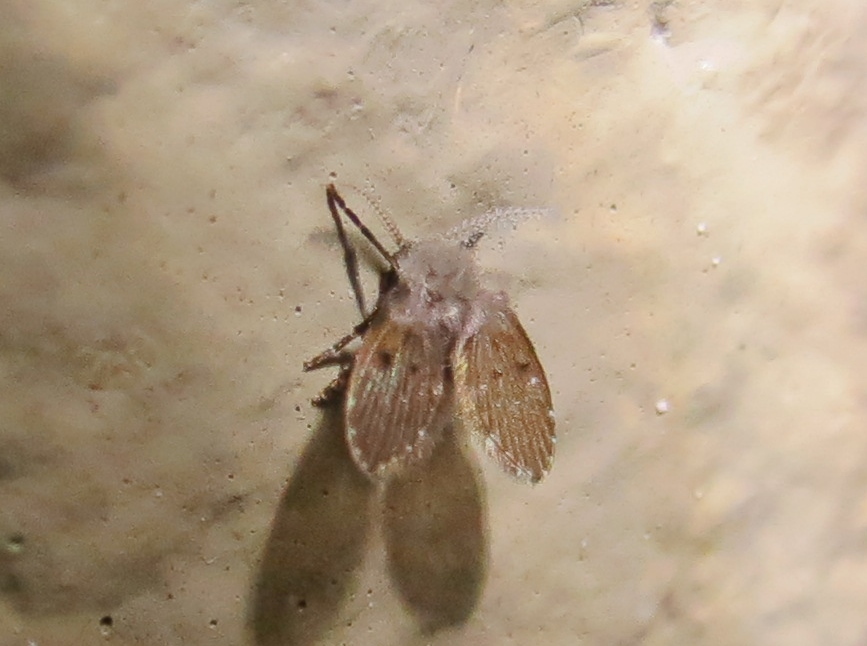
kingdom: Animalia
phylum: Arthropoda
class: Insecta
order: Diptera
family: Psychodidae
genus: Clogmia
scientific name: Clogmia albipunctatus
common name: White-spotted moth fly
